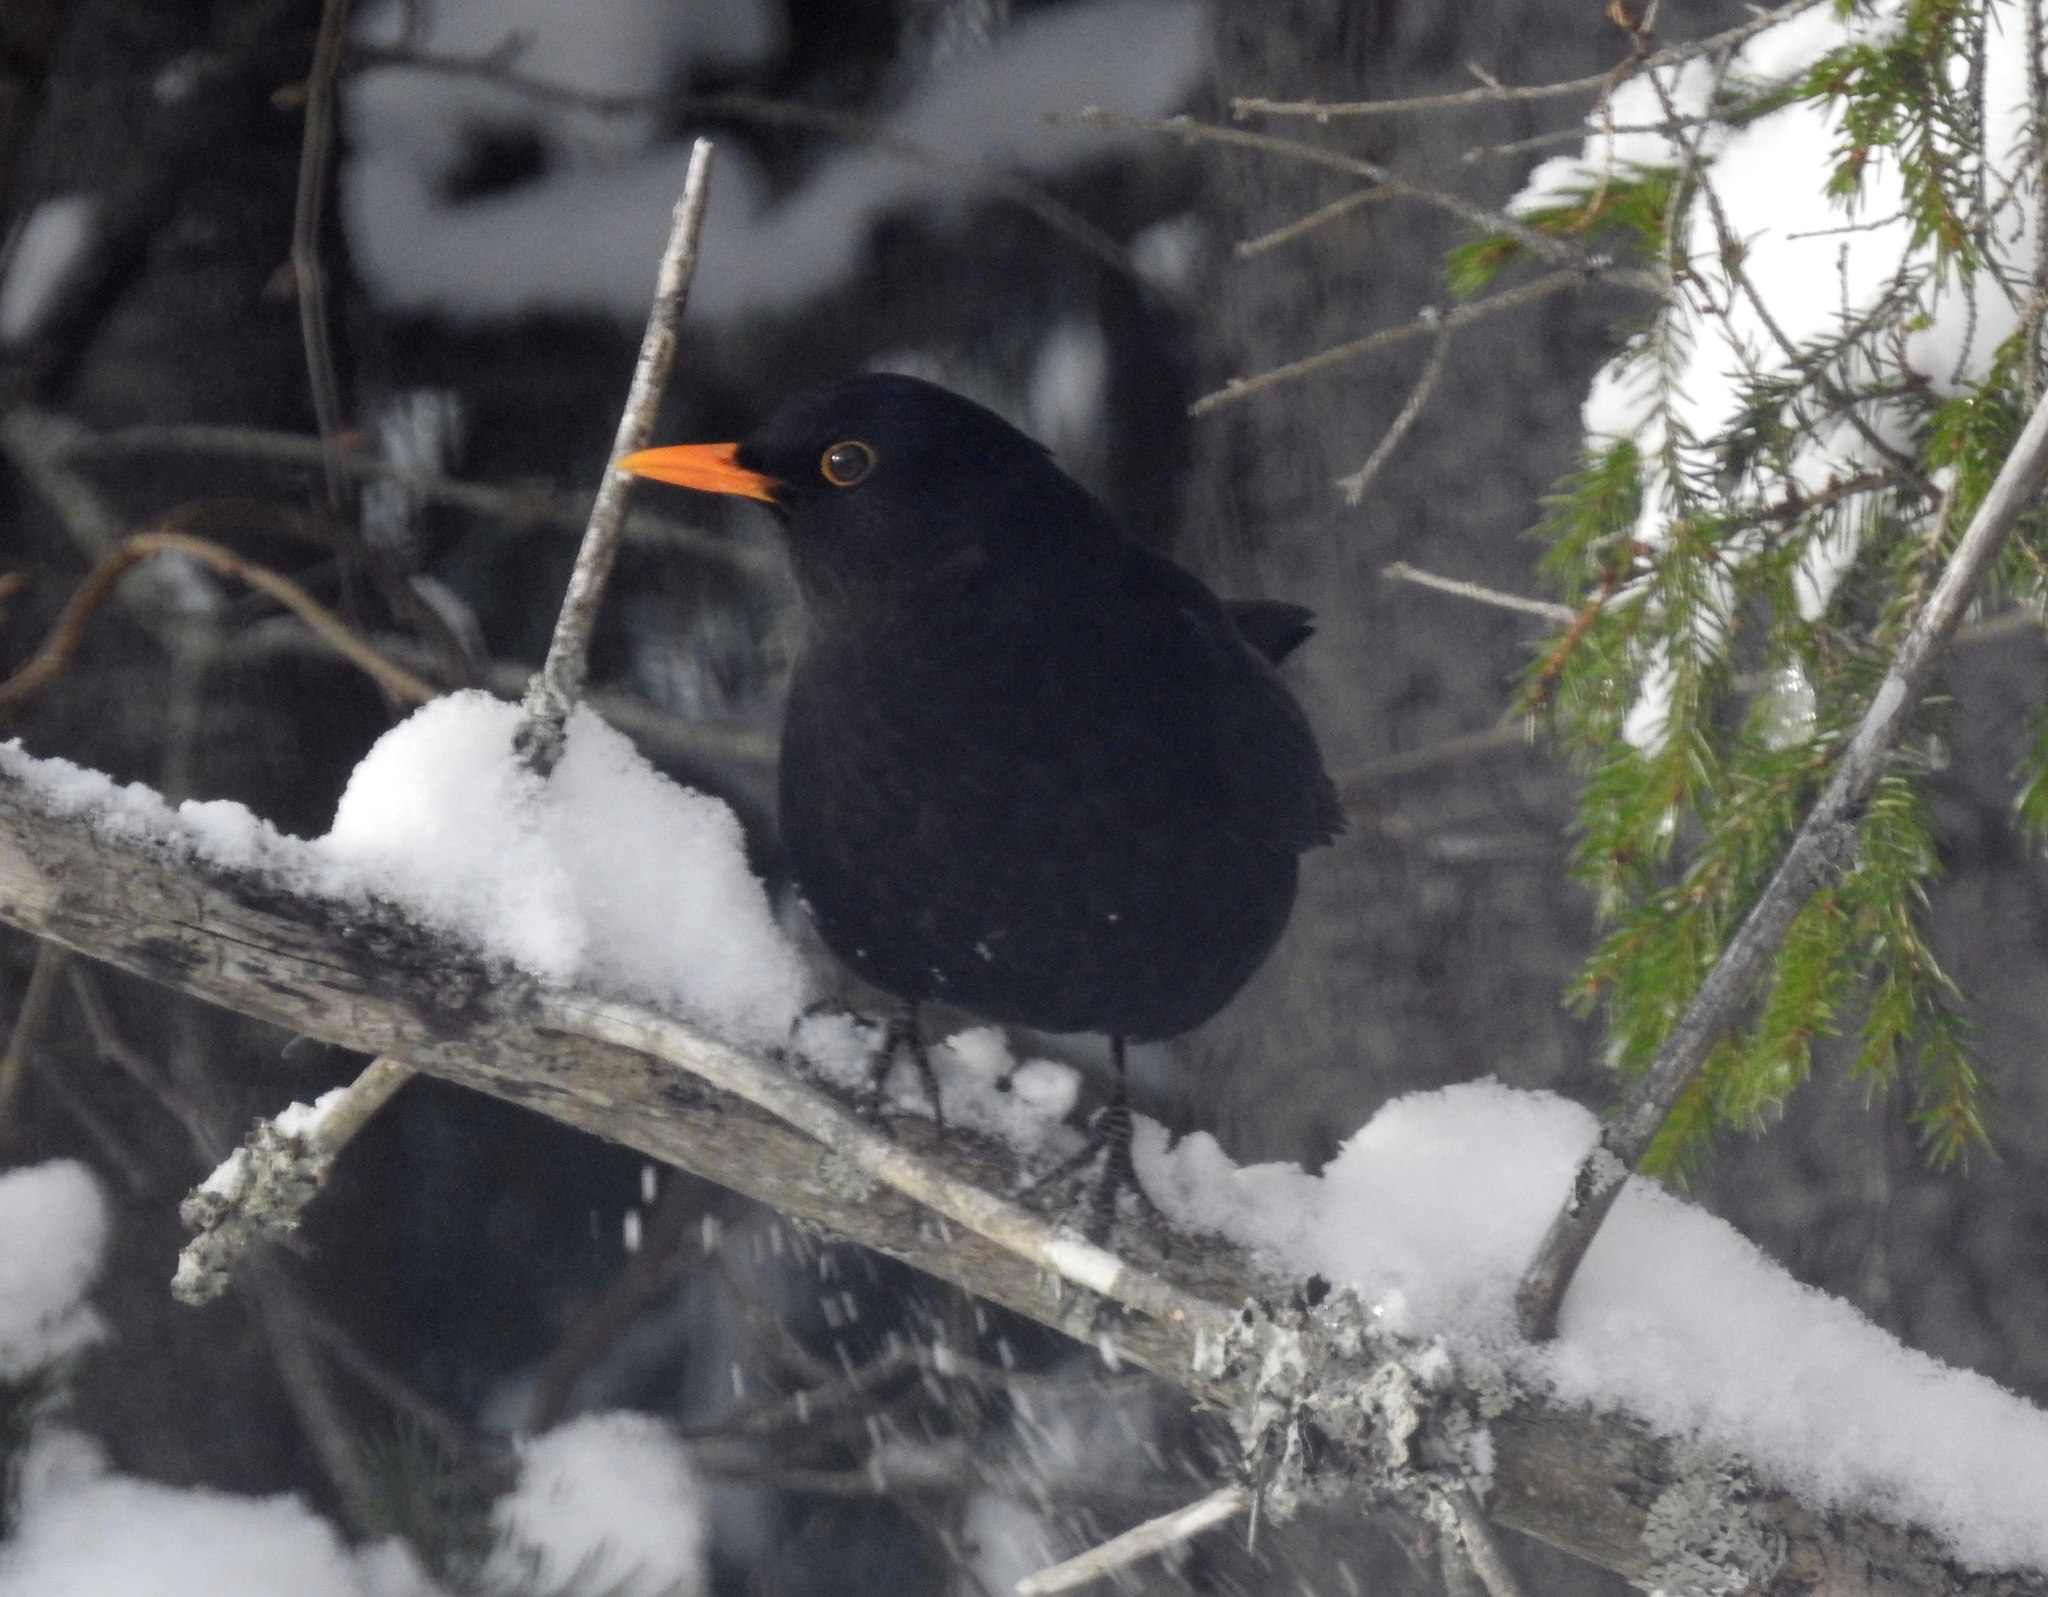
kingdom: Animalia
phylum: Chordata
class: Aves
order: Passeriformes
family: Turdidae
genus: Turdus
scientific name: Turdus merula
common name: Common blackbird
